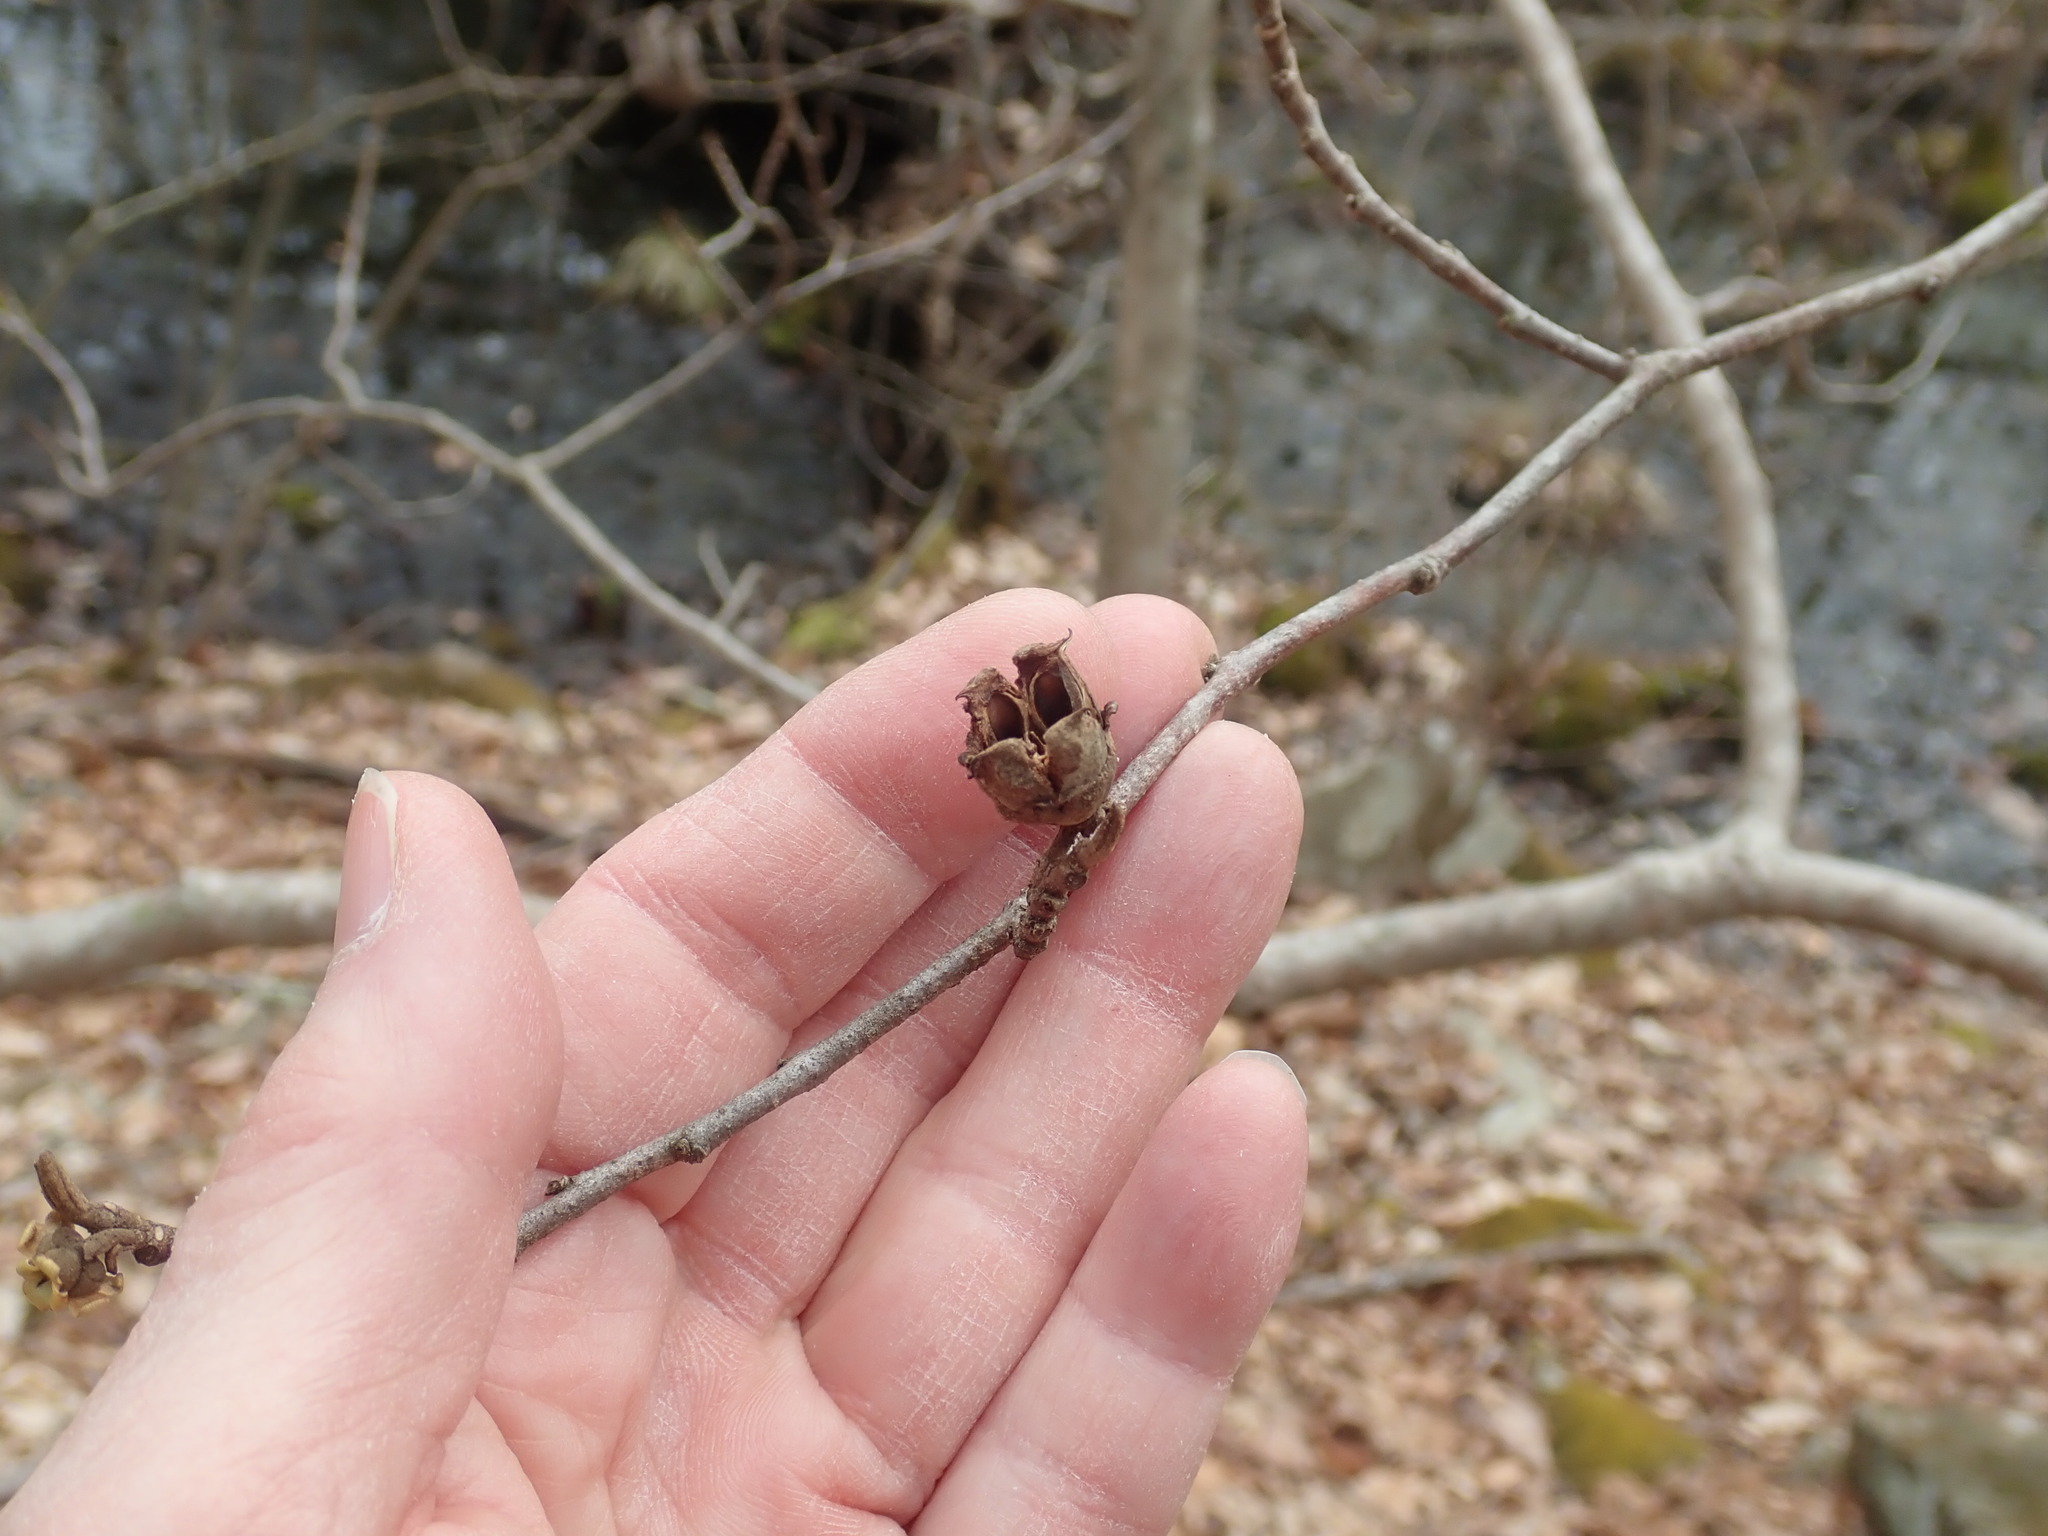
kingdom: Plantae
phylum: Tracheophyta
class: Magnoliopsida
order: Saxifragales
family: Hamamelidaceae
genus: Hamamelis
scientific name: Hamamelis virginiana
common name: Witch-hazel
